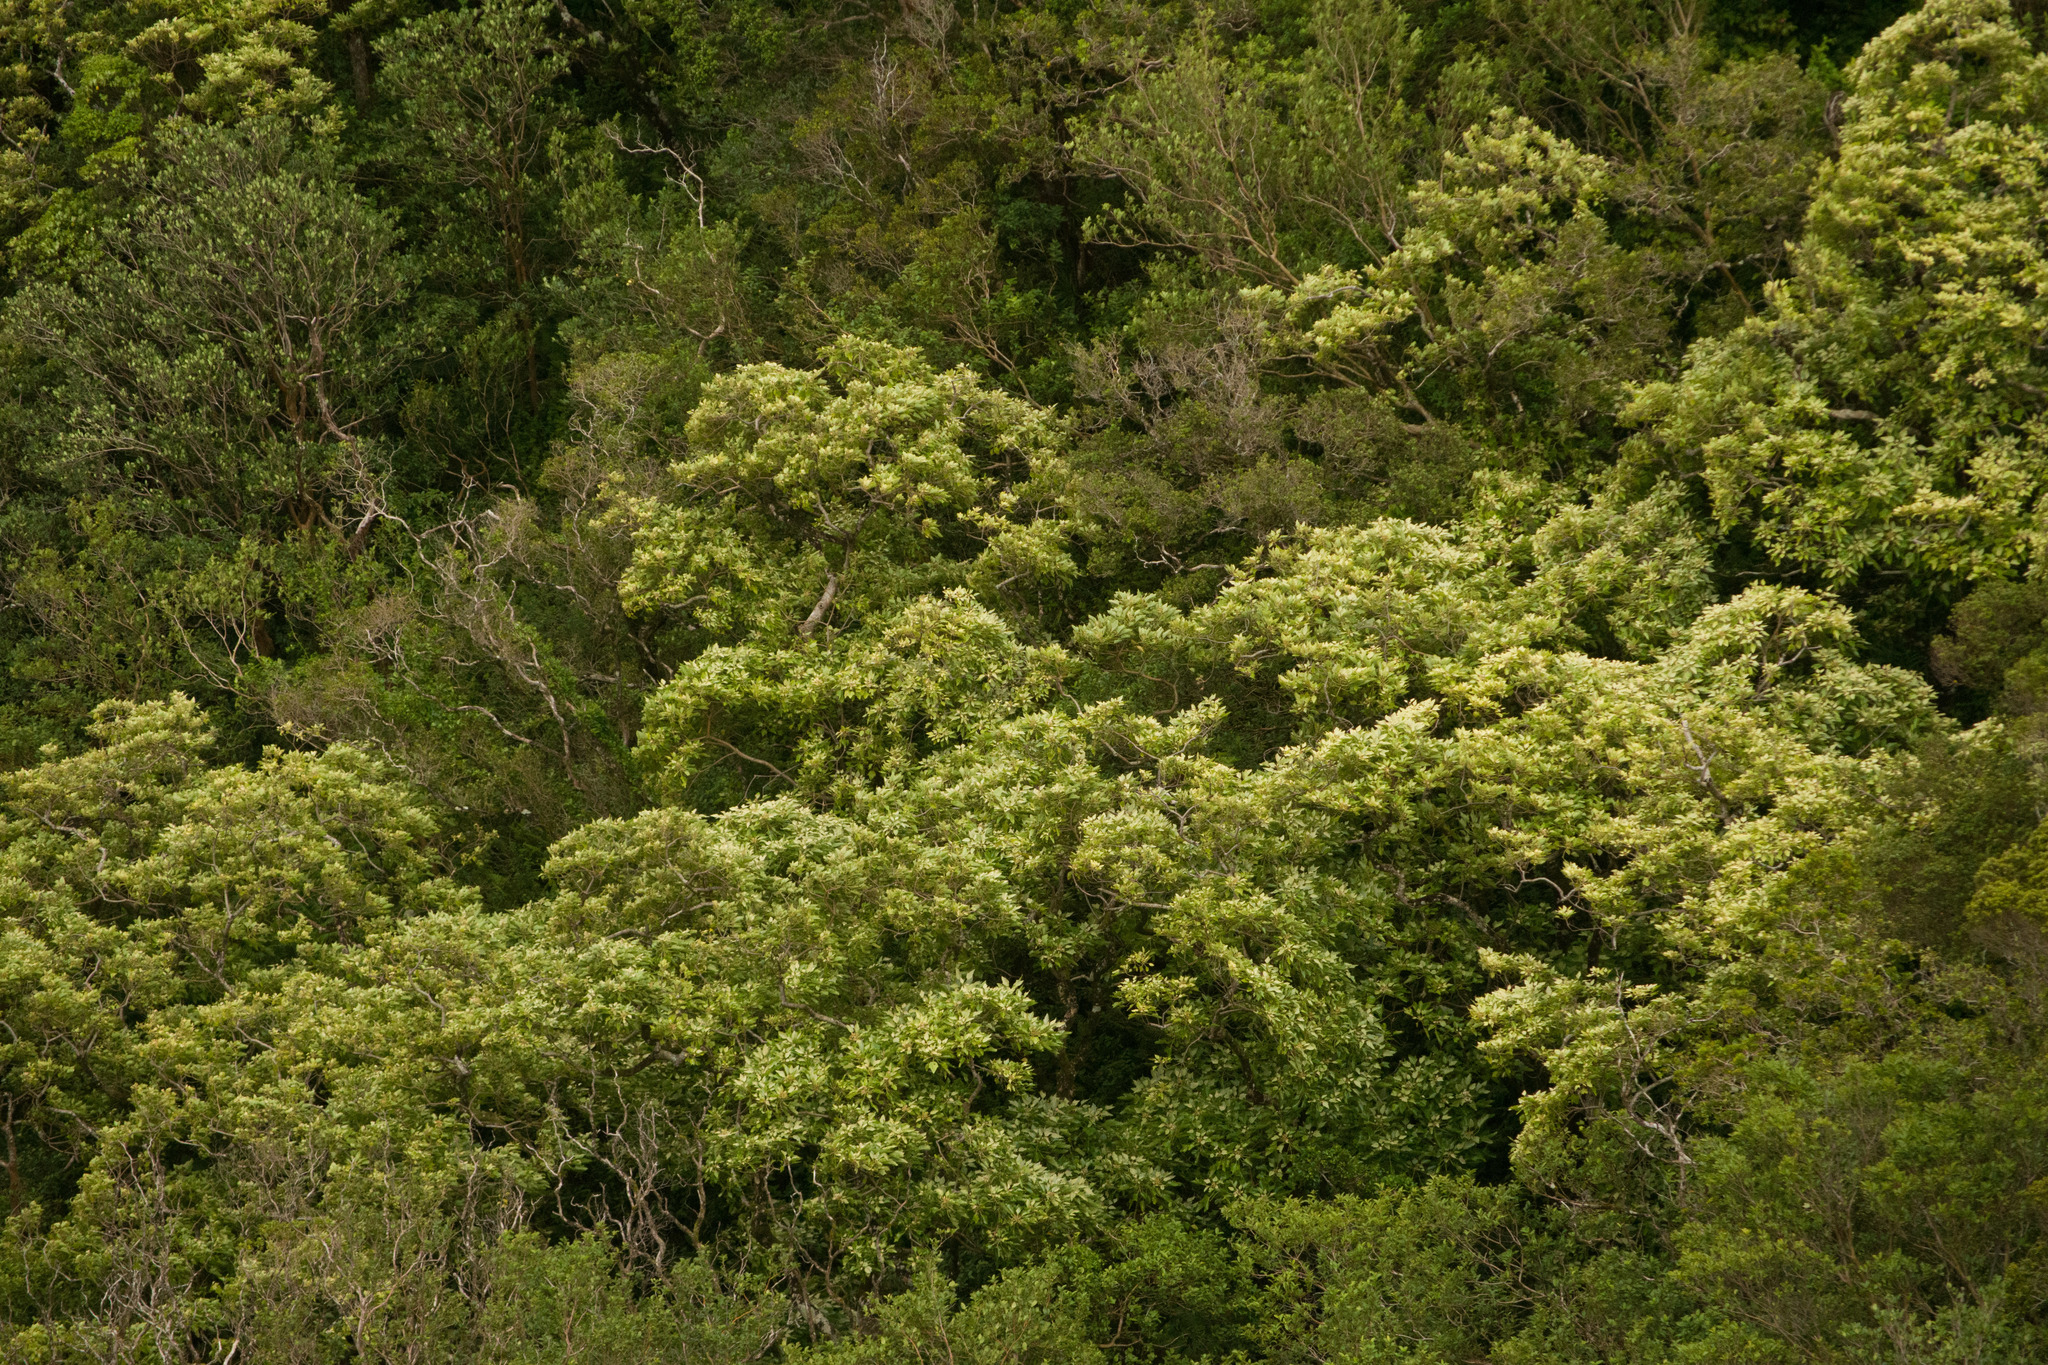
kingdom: Plantae
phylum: Tracheophyta
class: Magnoliopsida
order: Malpighiales
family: Euphorbiaceae
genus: Aleurites
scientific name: Aleurites moluccanus
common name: Candlenut tree
